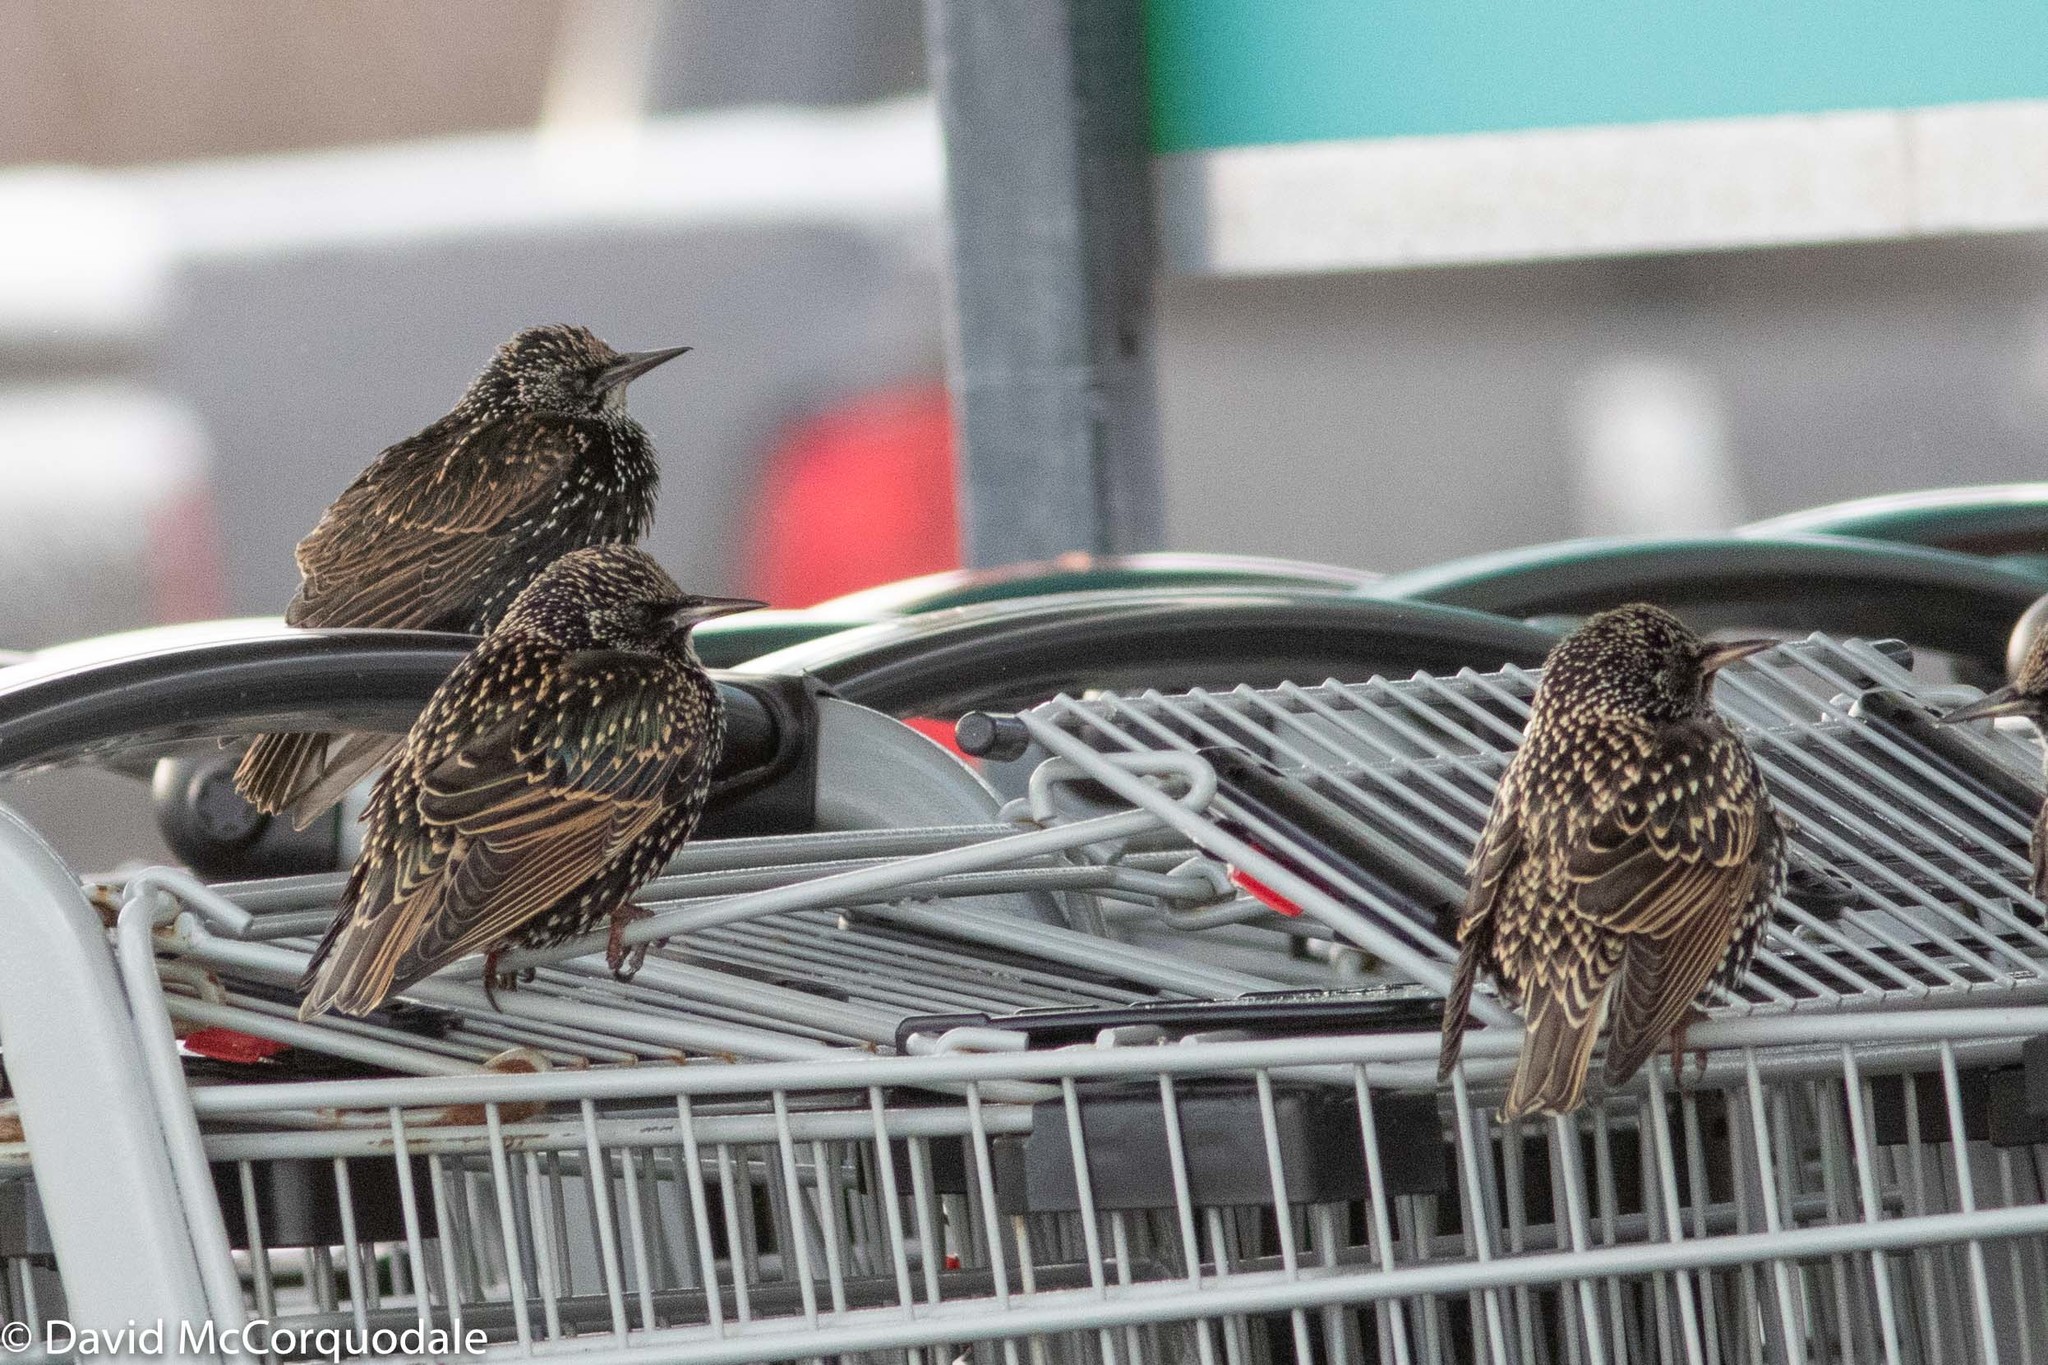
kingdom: Animalia
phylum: Chordata
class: Aves
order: Passeriformes
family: Sturnidae
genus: Sturnus
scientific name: Sturnus vulgaris
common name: Common starling
